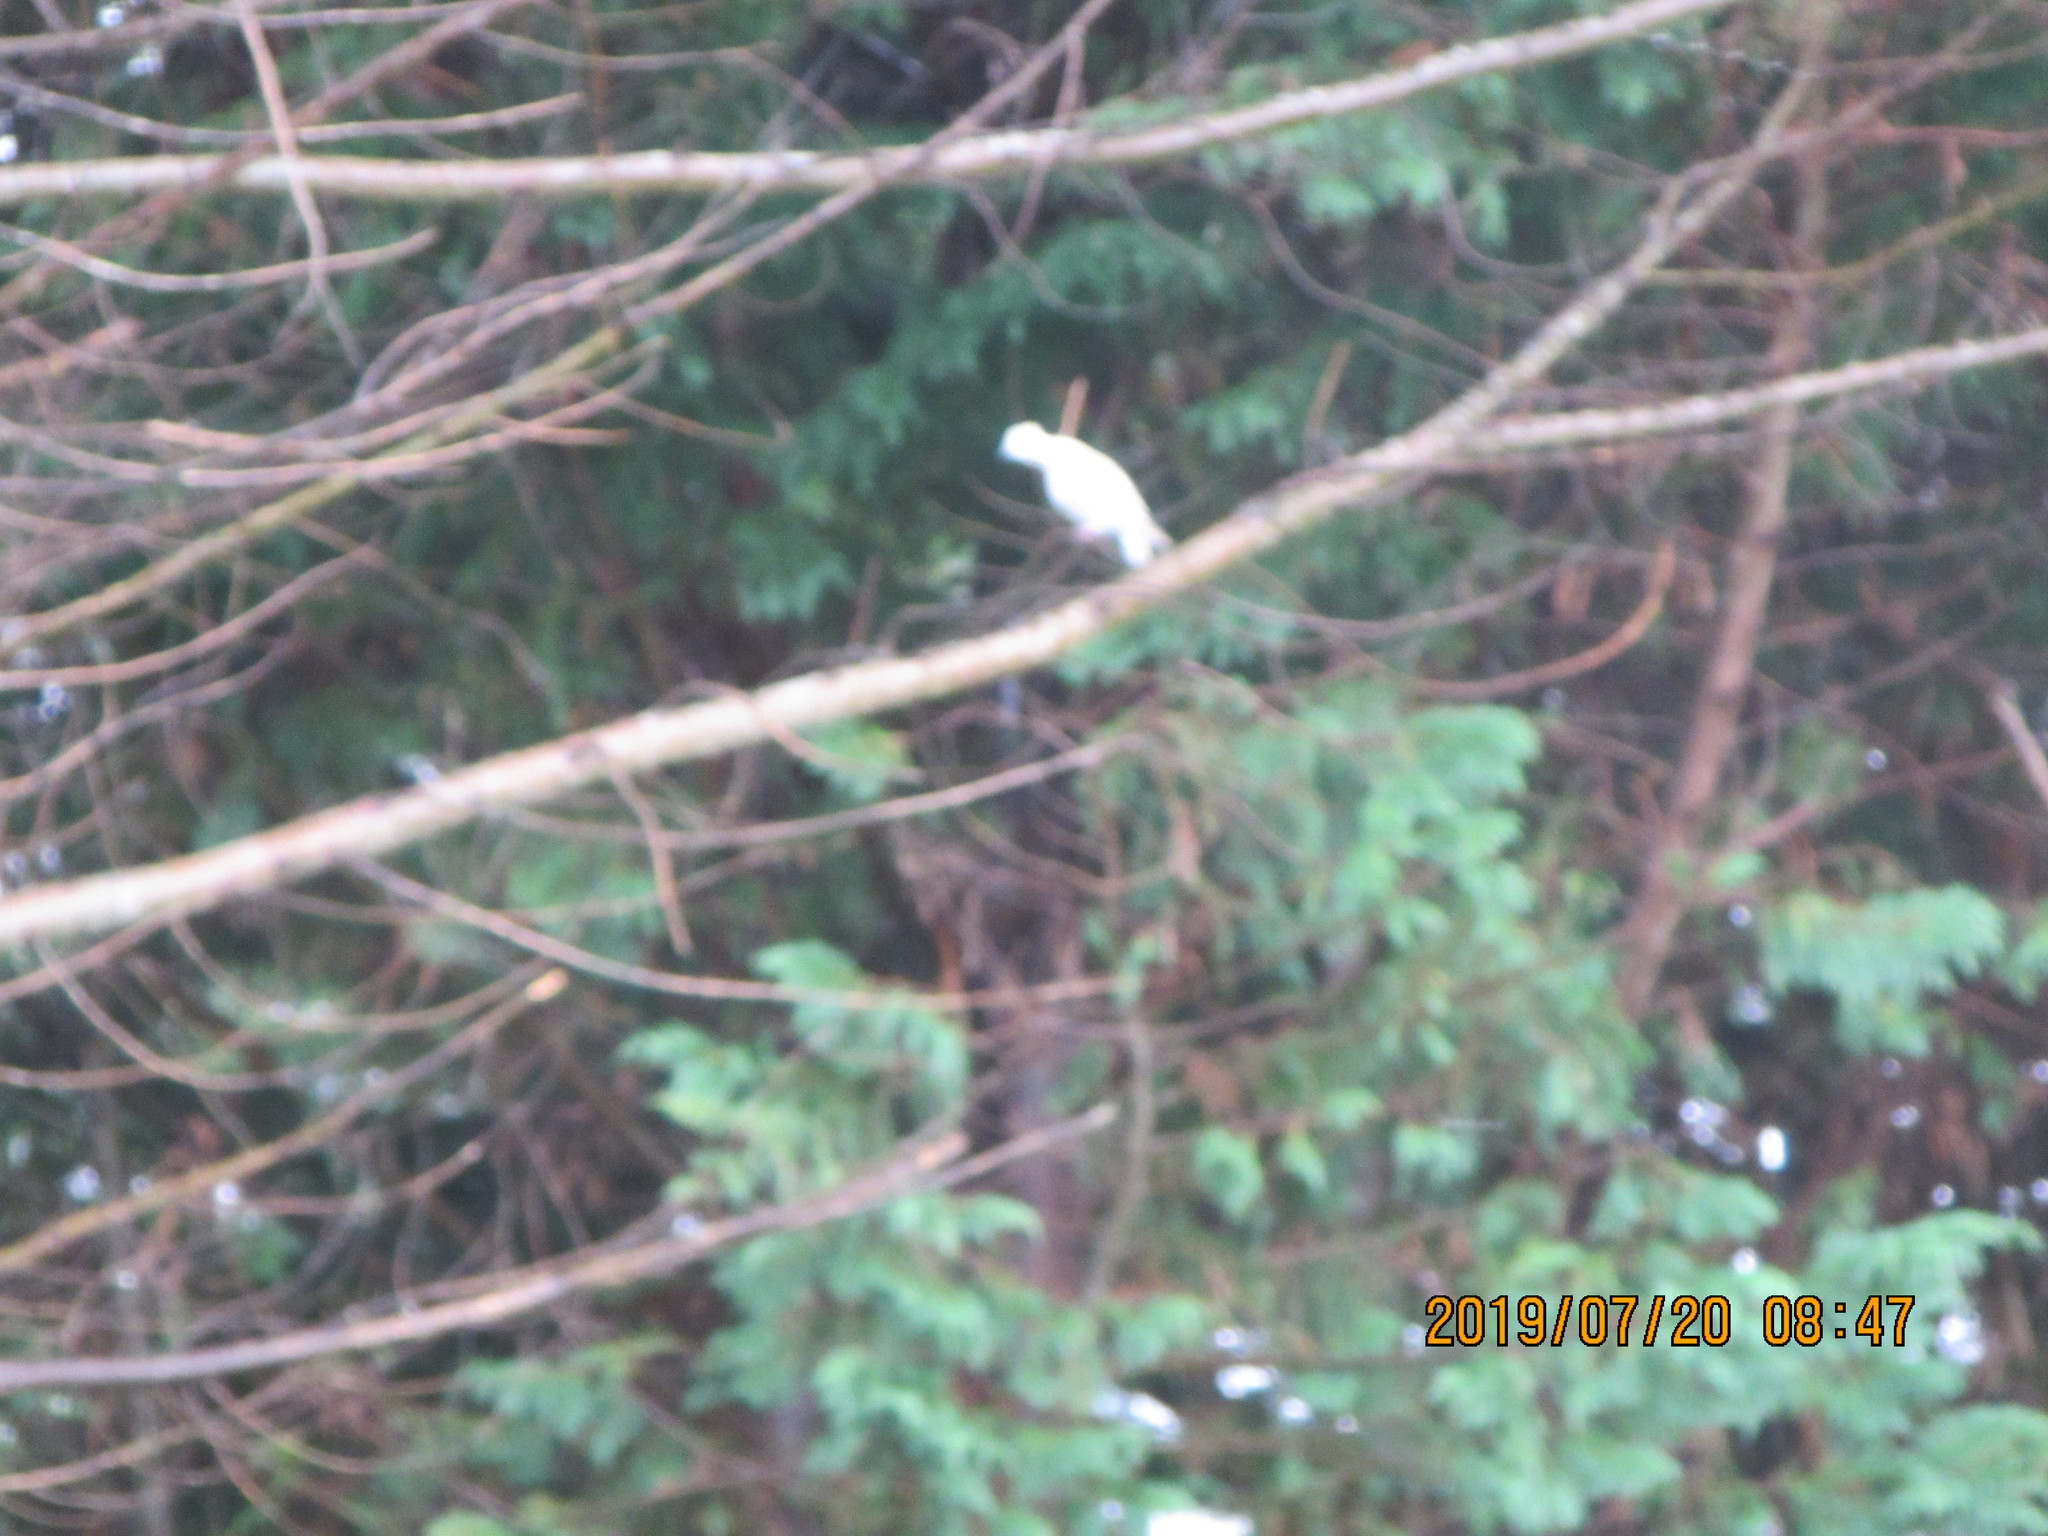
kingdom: Animalia
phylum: Chordata
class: Aves
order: Columbiformes
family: Columbidae
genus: Streptopelia
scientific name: Streptopelia roseogrisea
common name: African collared dove
